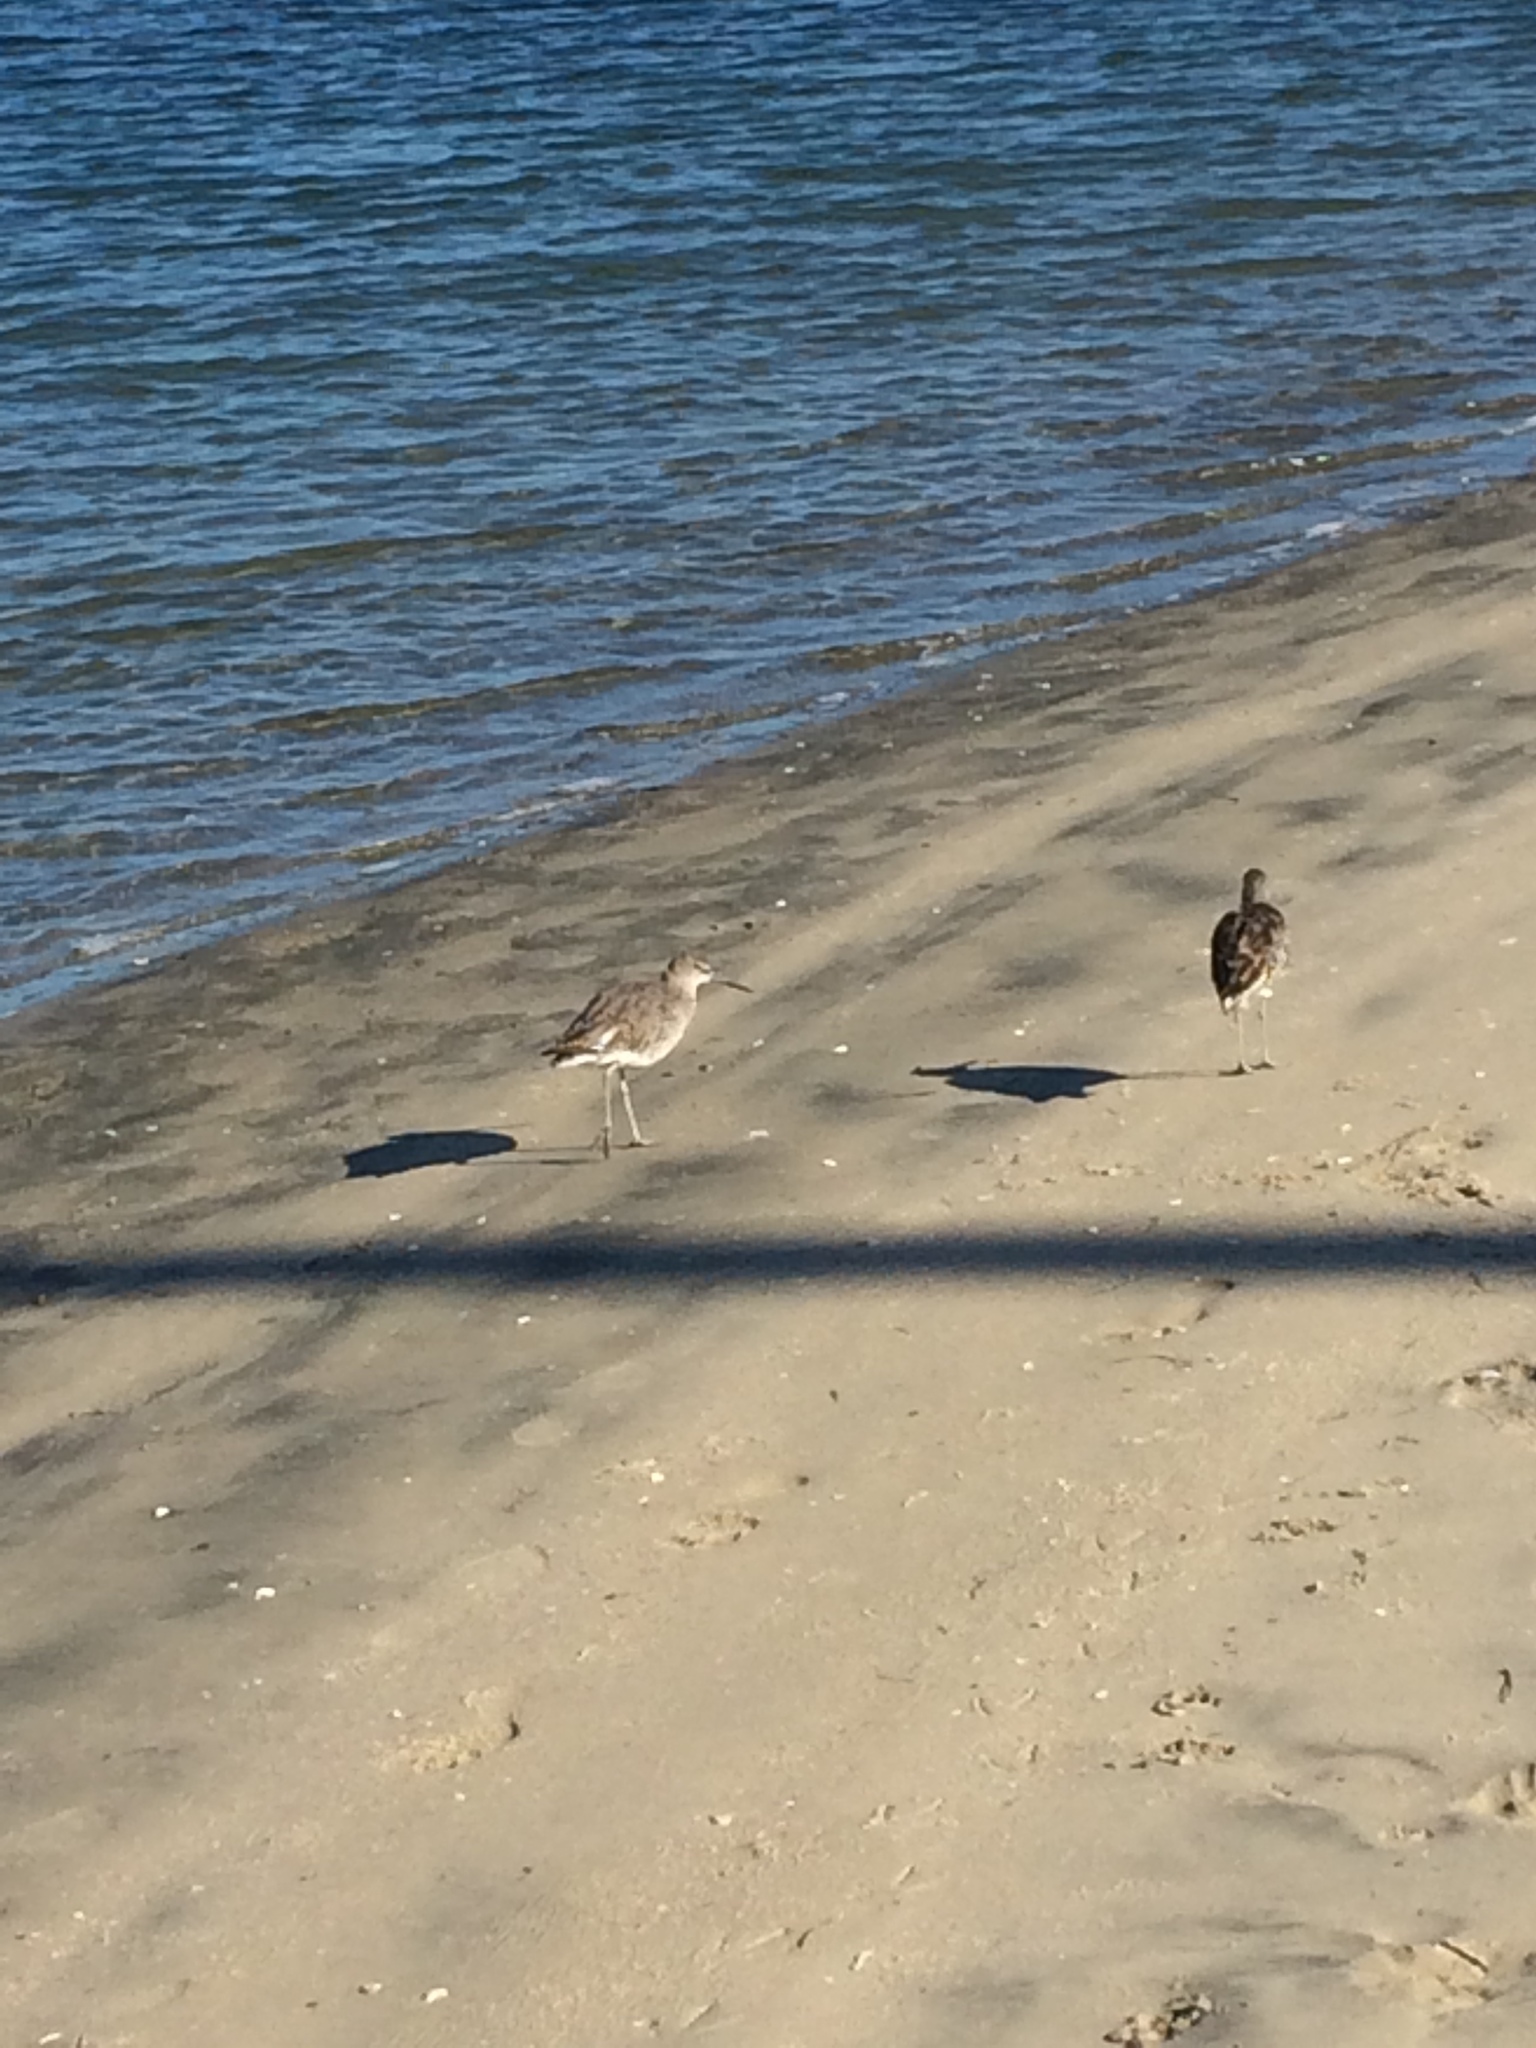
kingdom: Animalia
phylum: Chordata
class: Aves
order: Charadriiformes
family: Scolopacidae
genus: Tringa
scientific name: Tringa semipalmata
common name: Willet
